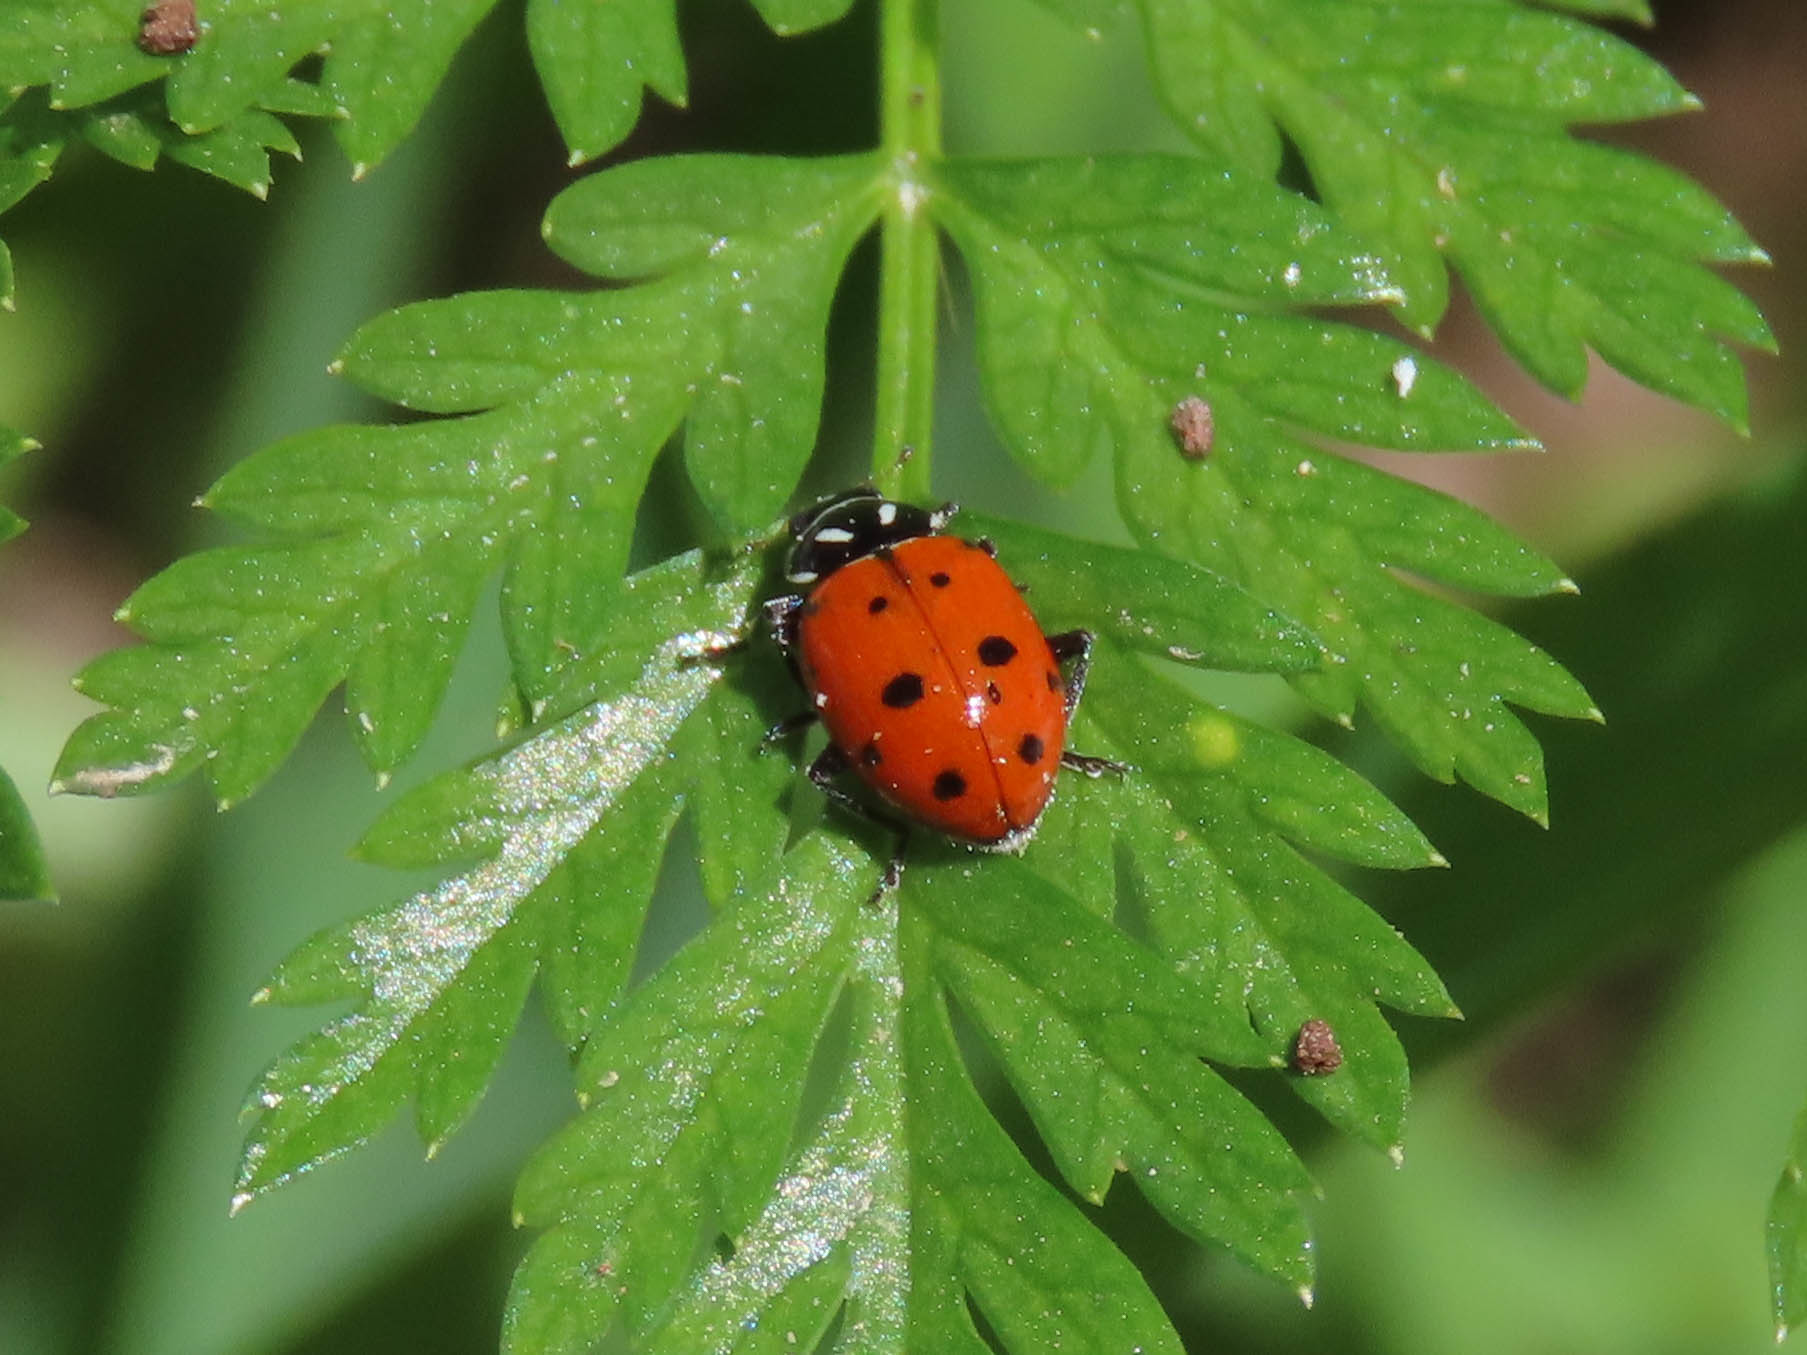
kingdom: Animalia
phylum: Arthropoda
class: Insecta
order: Coleoptera
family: Coccinellidae
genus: Hippodamia
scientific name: Hippodamia convergens
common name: Convergent lady beetle
